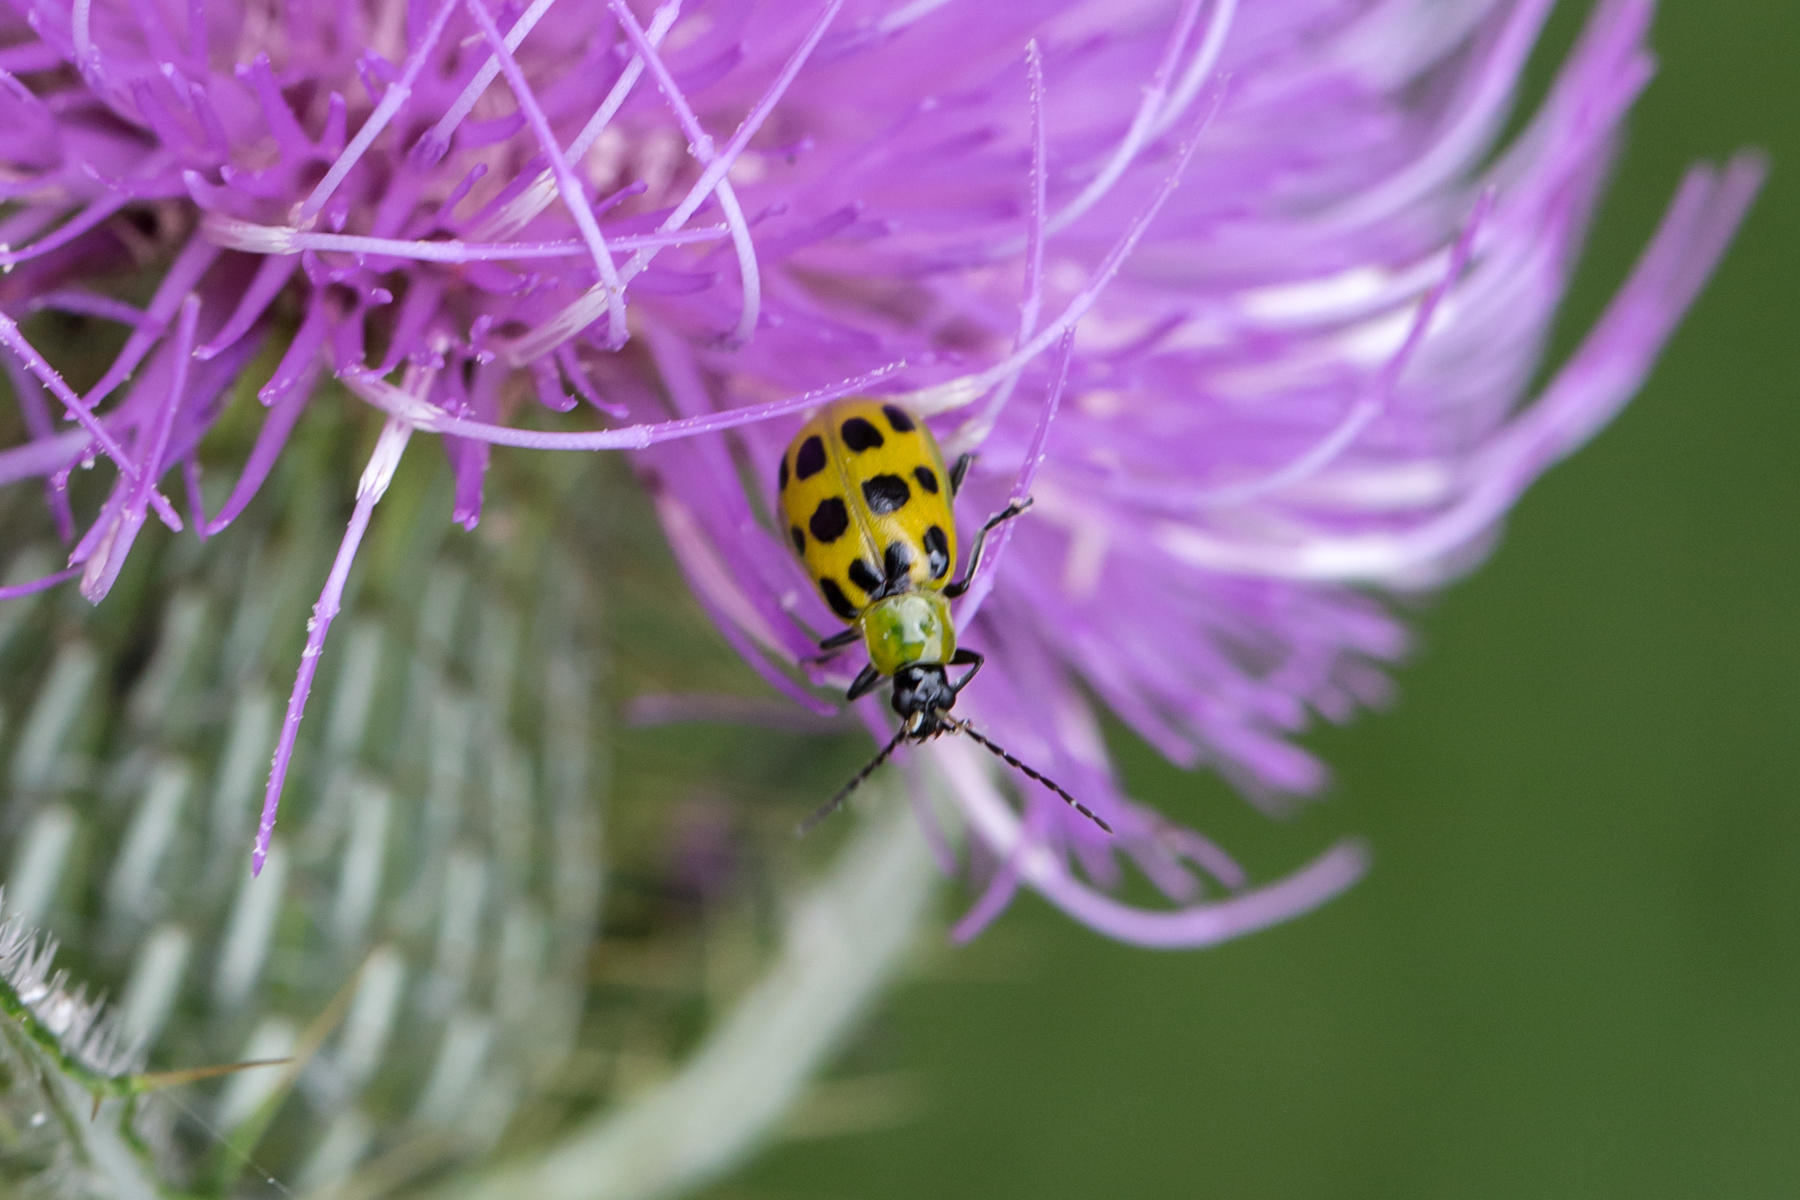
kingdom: Animalia
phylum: Arthropoda
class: Insecta
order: Coleoptera
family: Chrysomelidae
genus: Diabrotica
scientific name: Diabrotica undecimpunctata
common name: Spotted cucumber beetle
